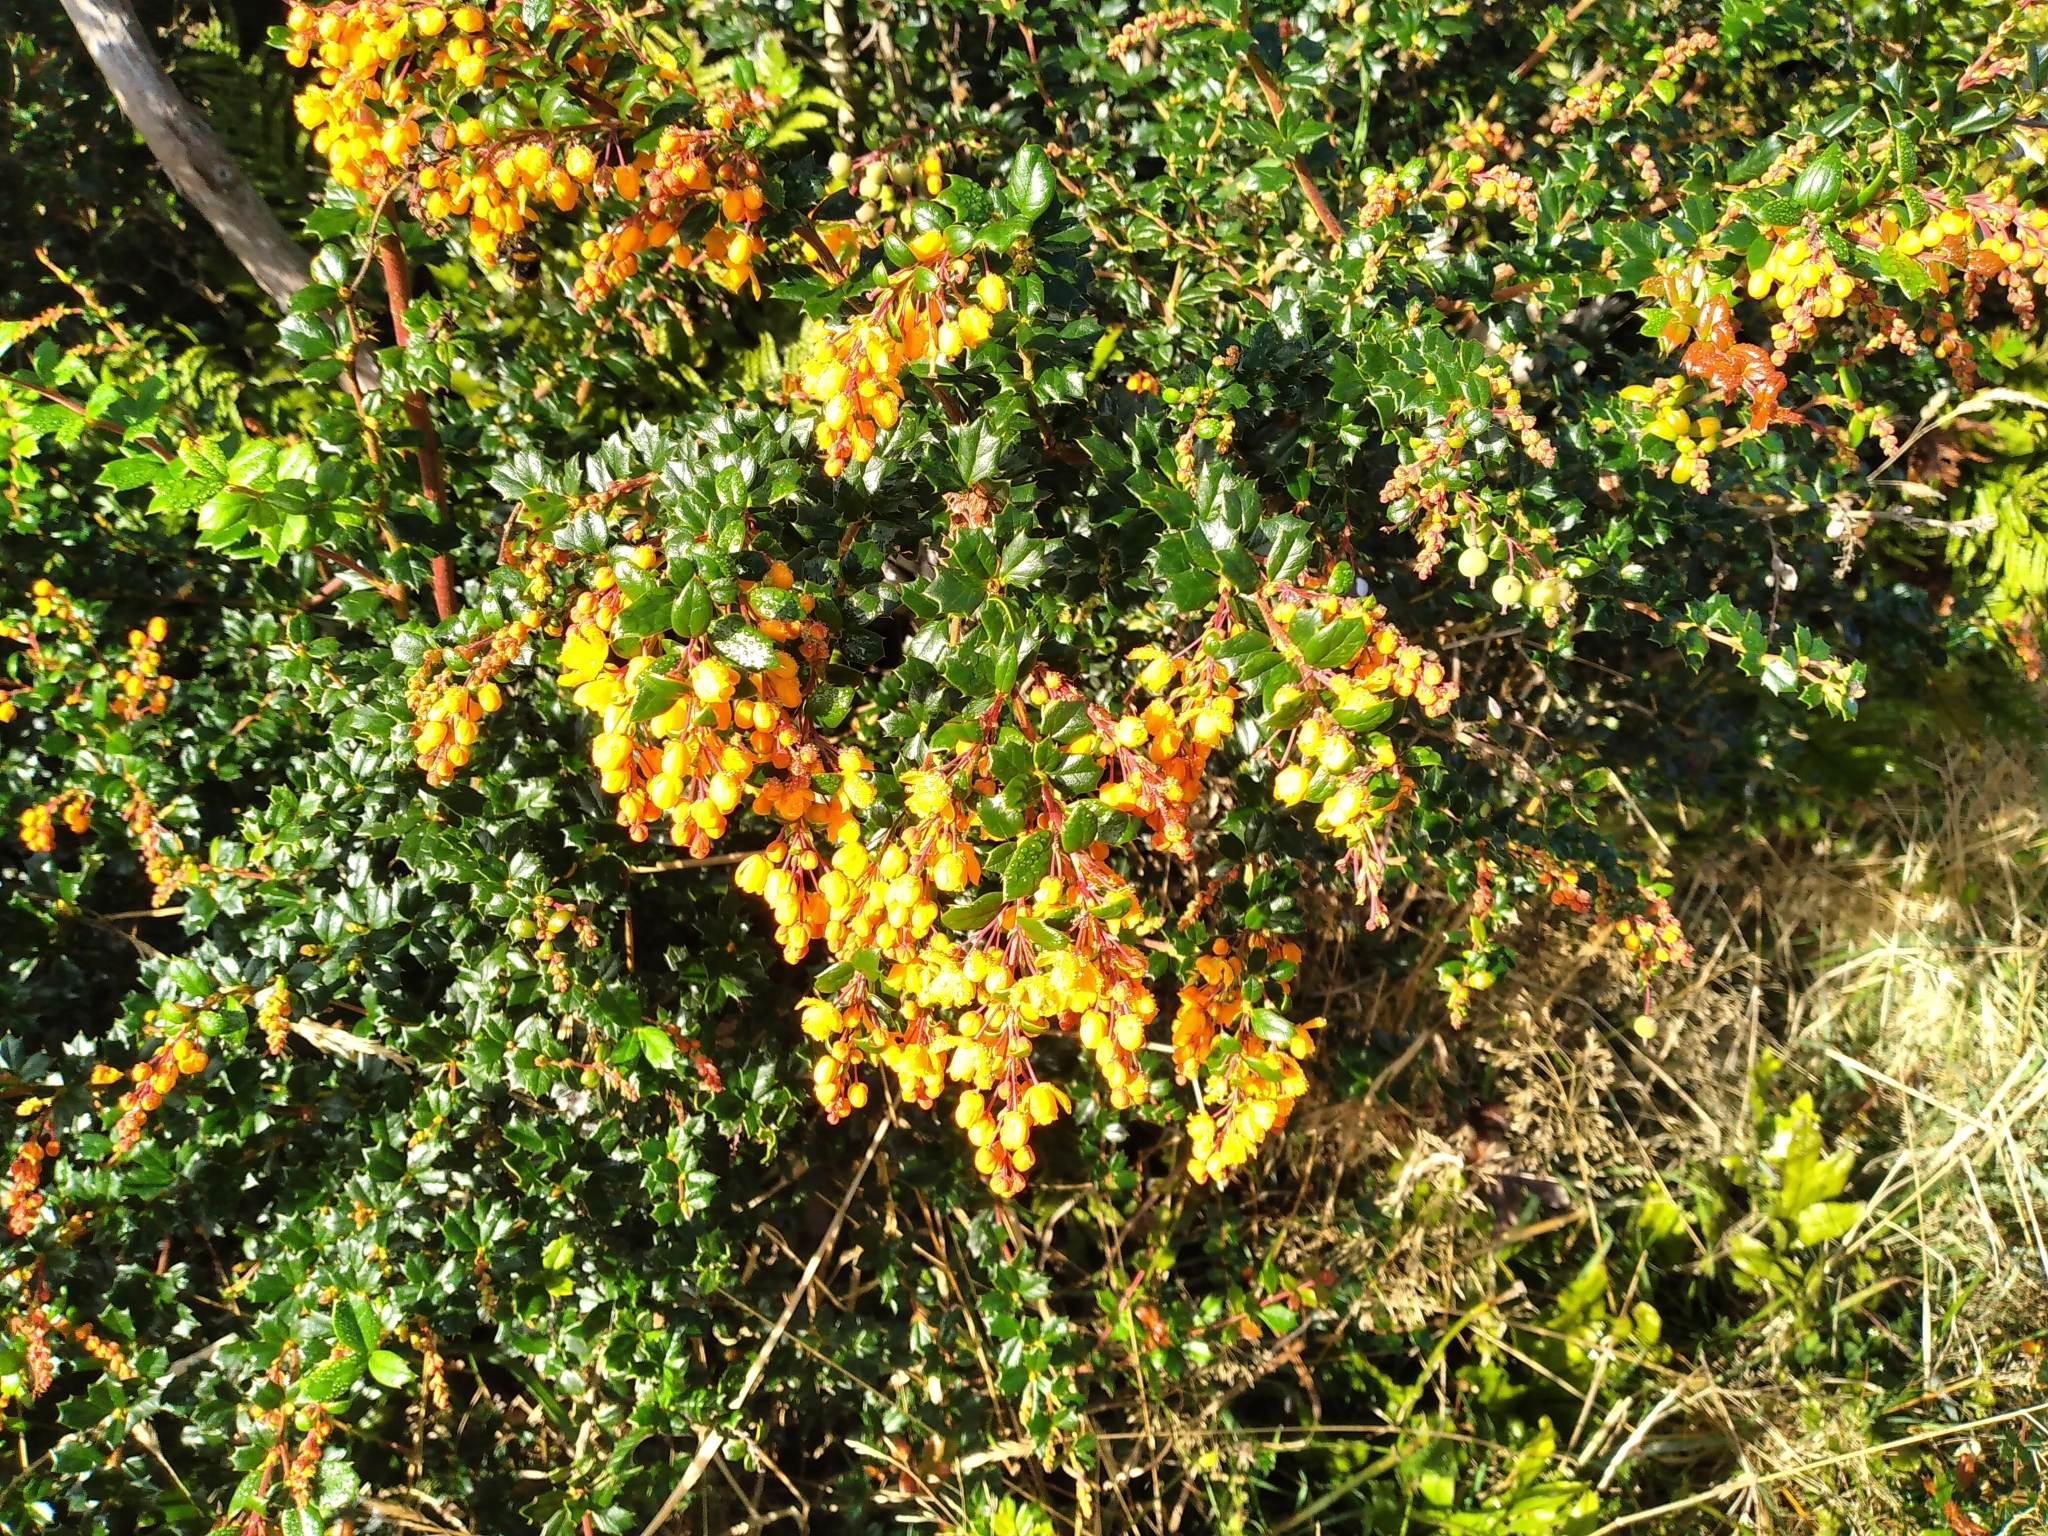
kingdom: Plantae
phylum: Tracheophyta
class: Magnoliopsida
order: Ranunculales
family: Berberidaceae
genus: Berberis
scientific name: Berberis darwinii
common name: Darwin's barberry
